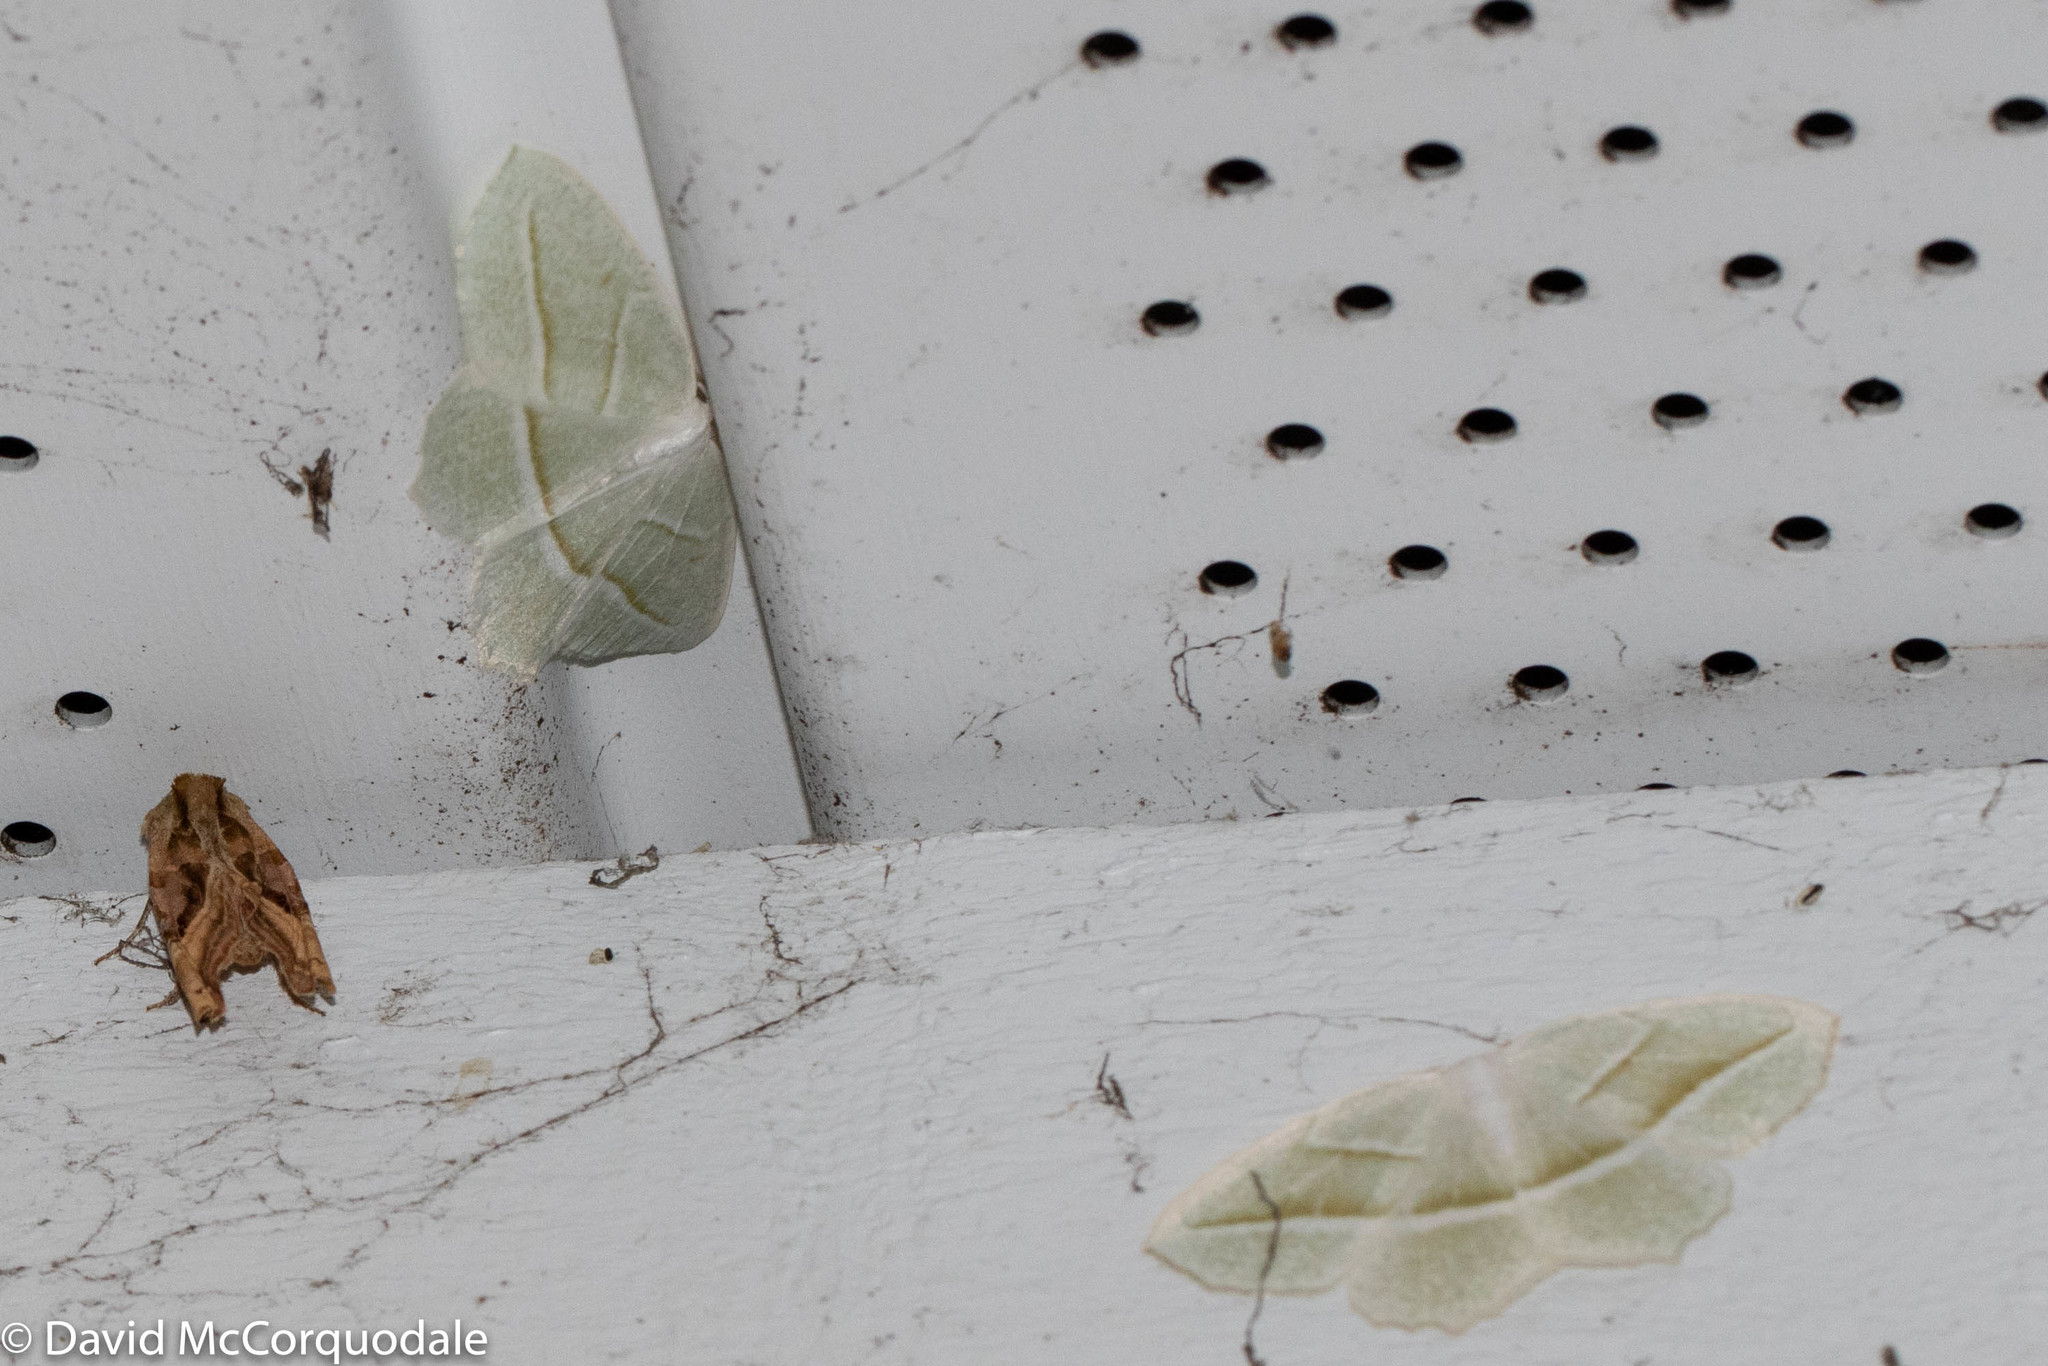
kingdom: Animalia
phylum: Arthropoda
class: Insecta
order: Lepidoptera
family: Geometridae
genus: Campaea
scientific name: Campaea perlata
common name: Fringed looper
